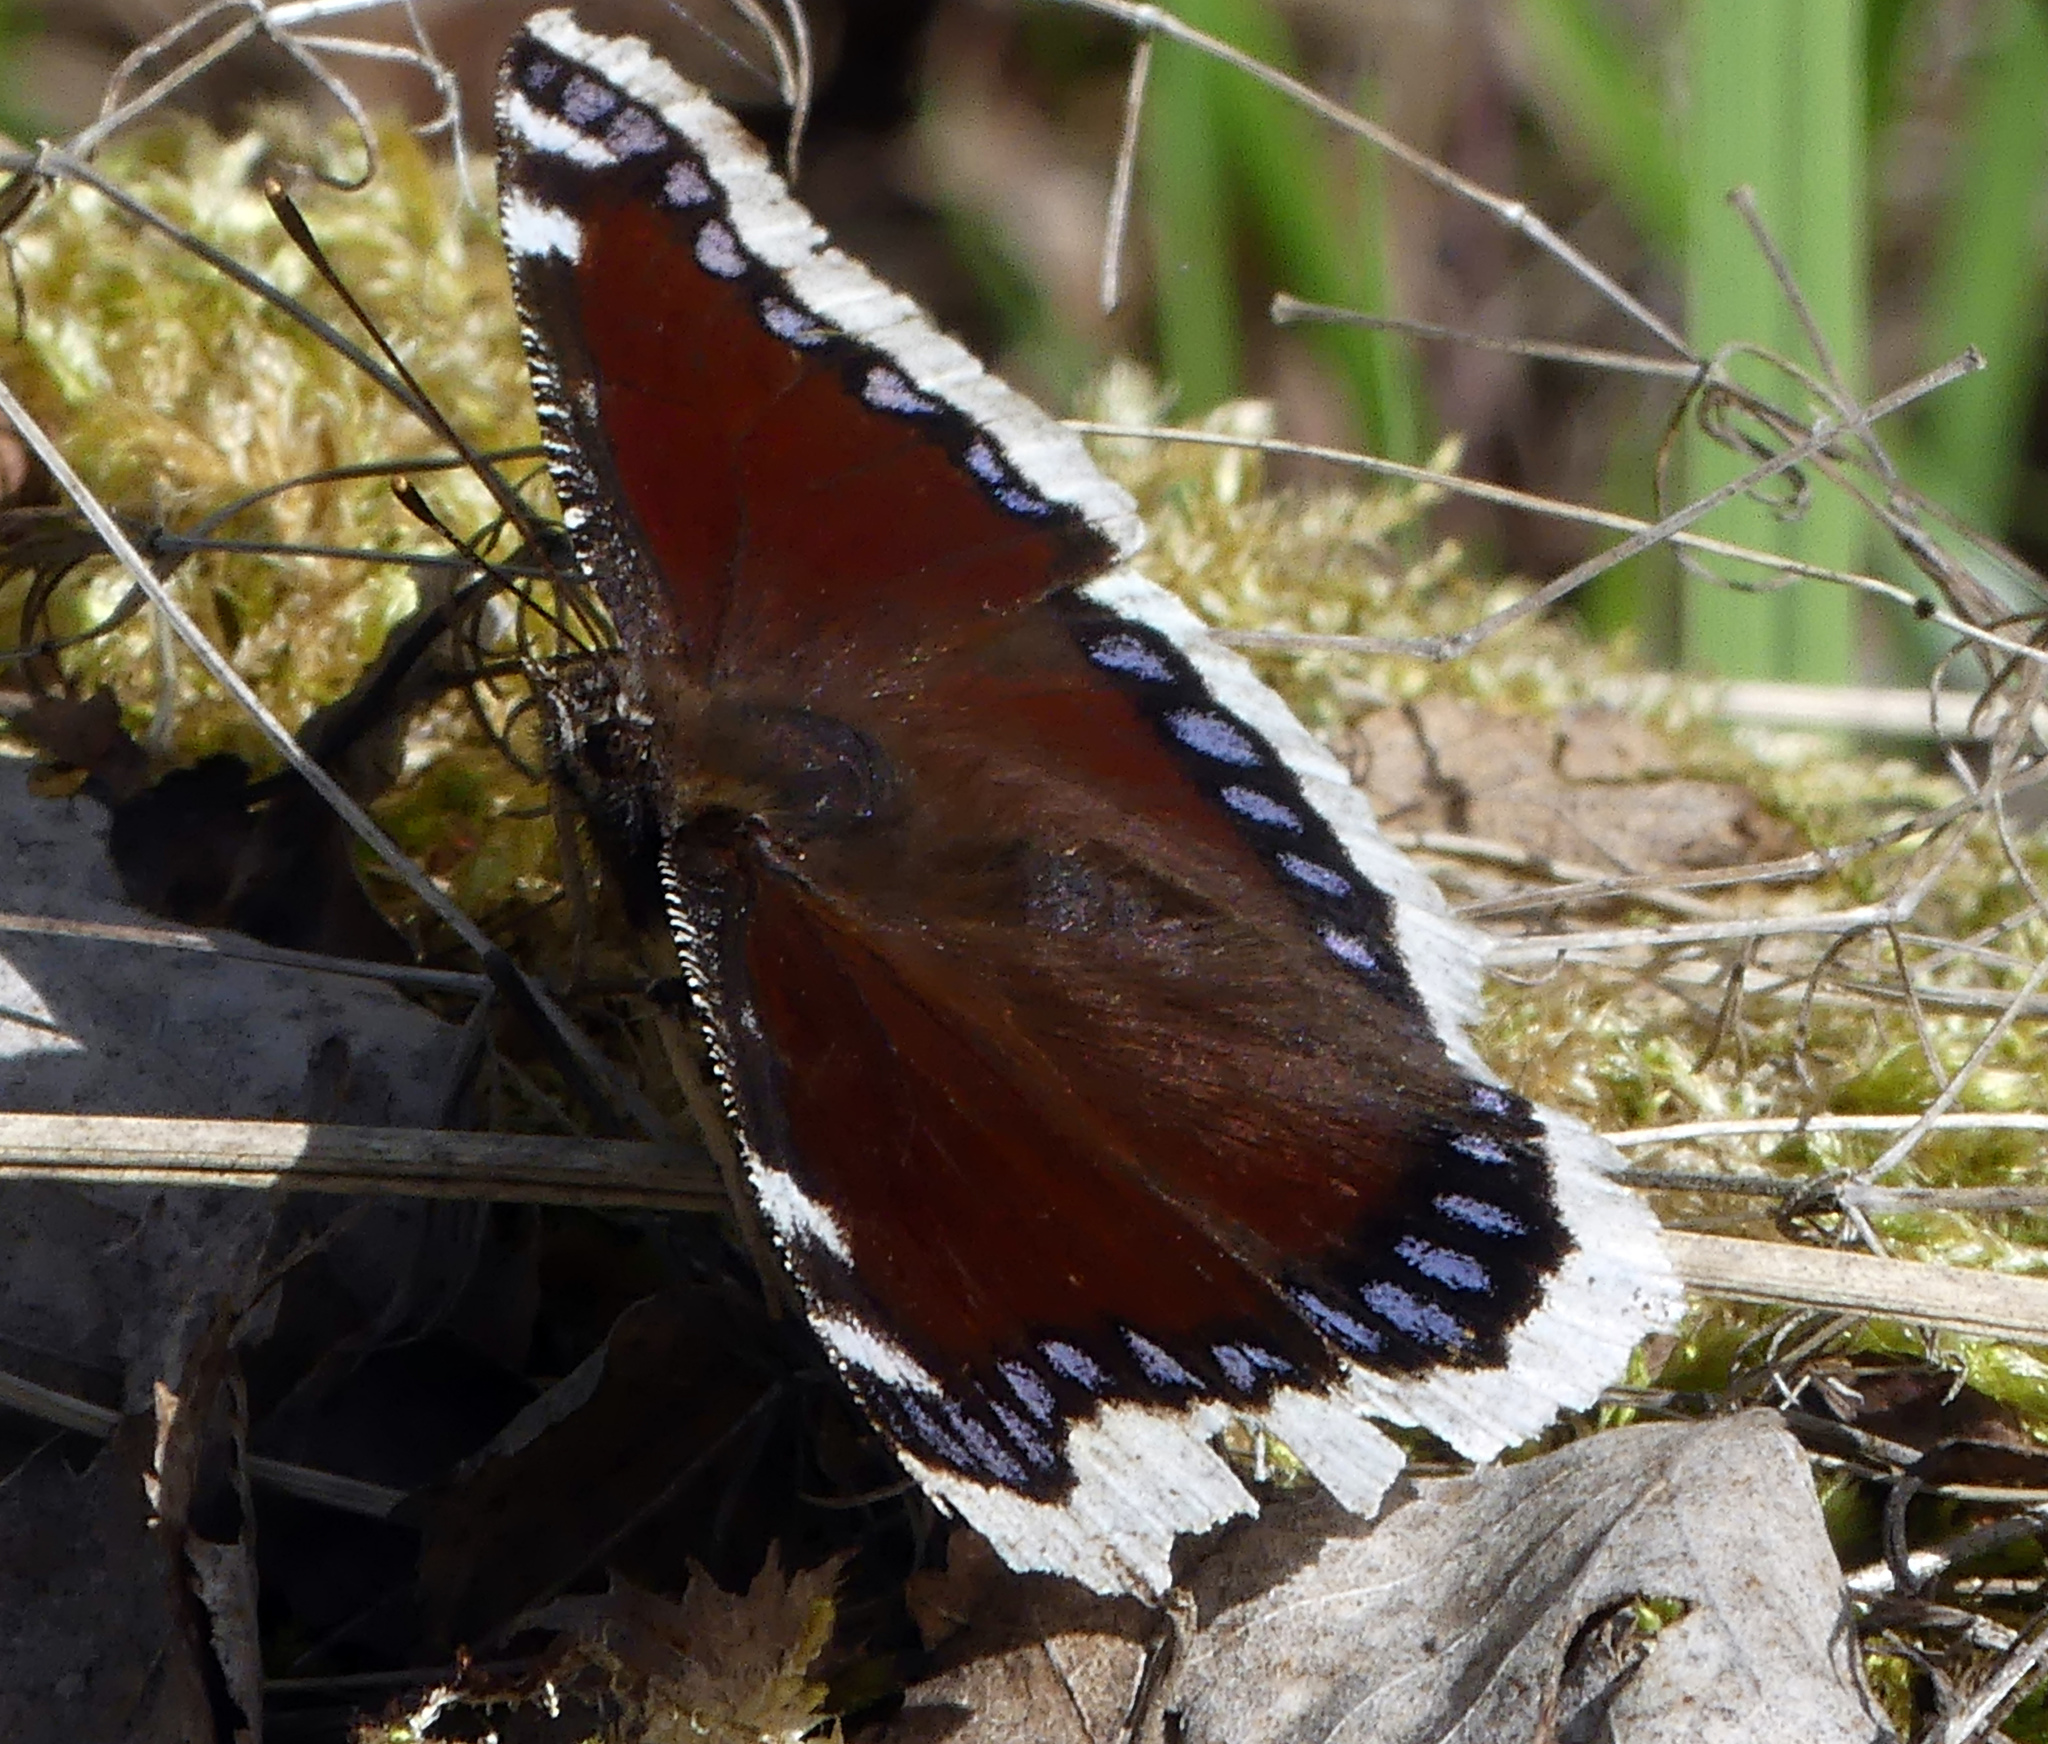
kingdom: Animalia
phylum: Arthropoda
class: Insecta
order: Lepidoptera
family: Nymphalidae
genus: Nymphalis
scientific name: Nymphalis antiopa
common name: Camberwell beauty
